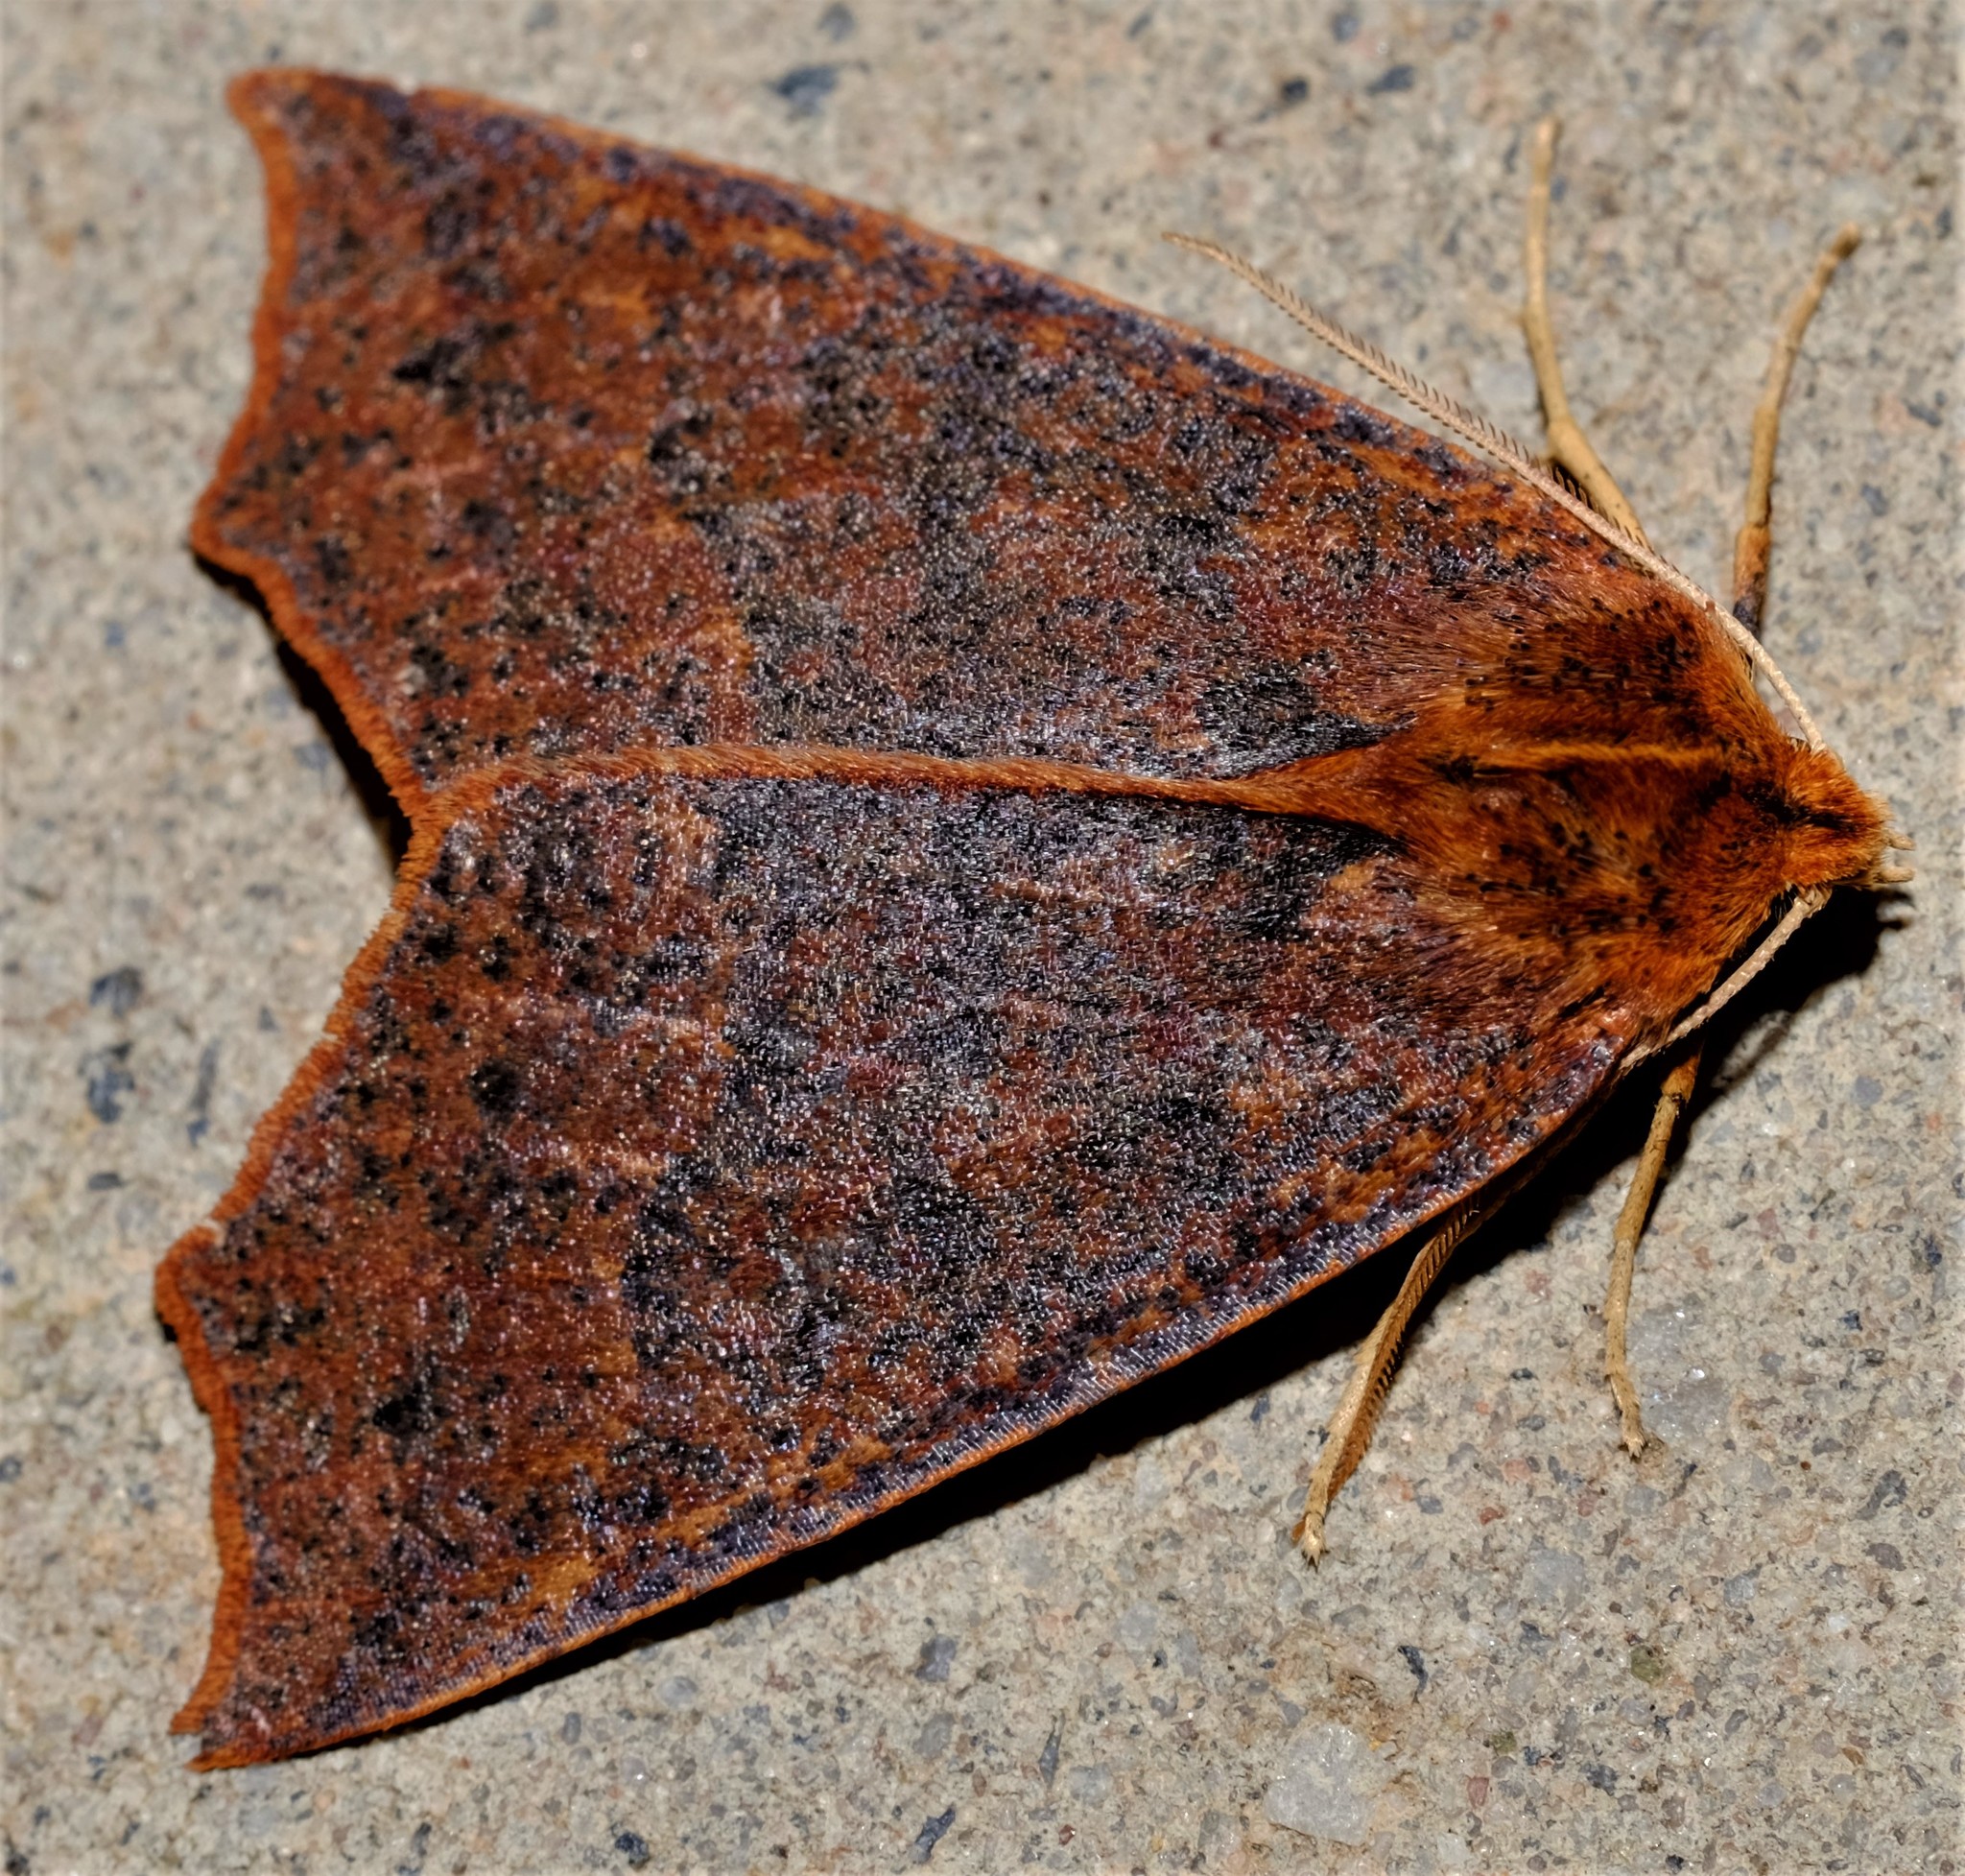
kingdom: Animalia
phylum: Arthropoda
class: Insecta
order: Lepidoptera
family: Geometridae
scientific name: Geometridae
